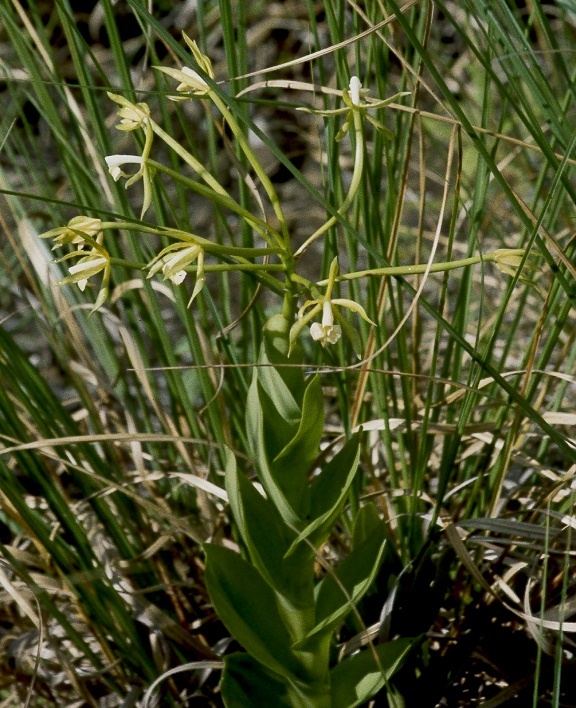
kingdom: Plantae
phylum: Tracheophyta
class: Liliopsida
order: Asparagales
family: Orchidaceae
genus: Epidendrum
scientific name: Epidendrum lacustre
